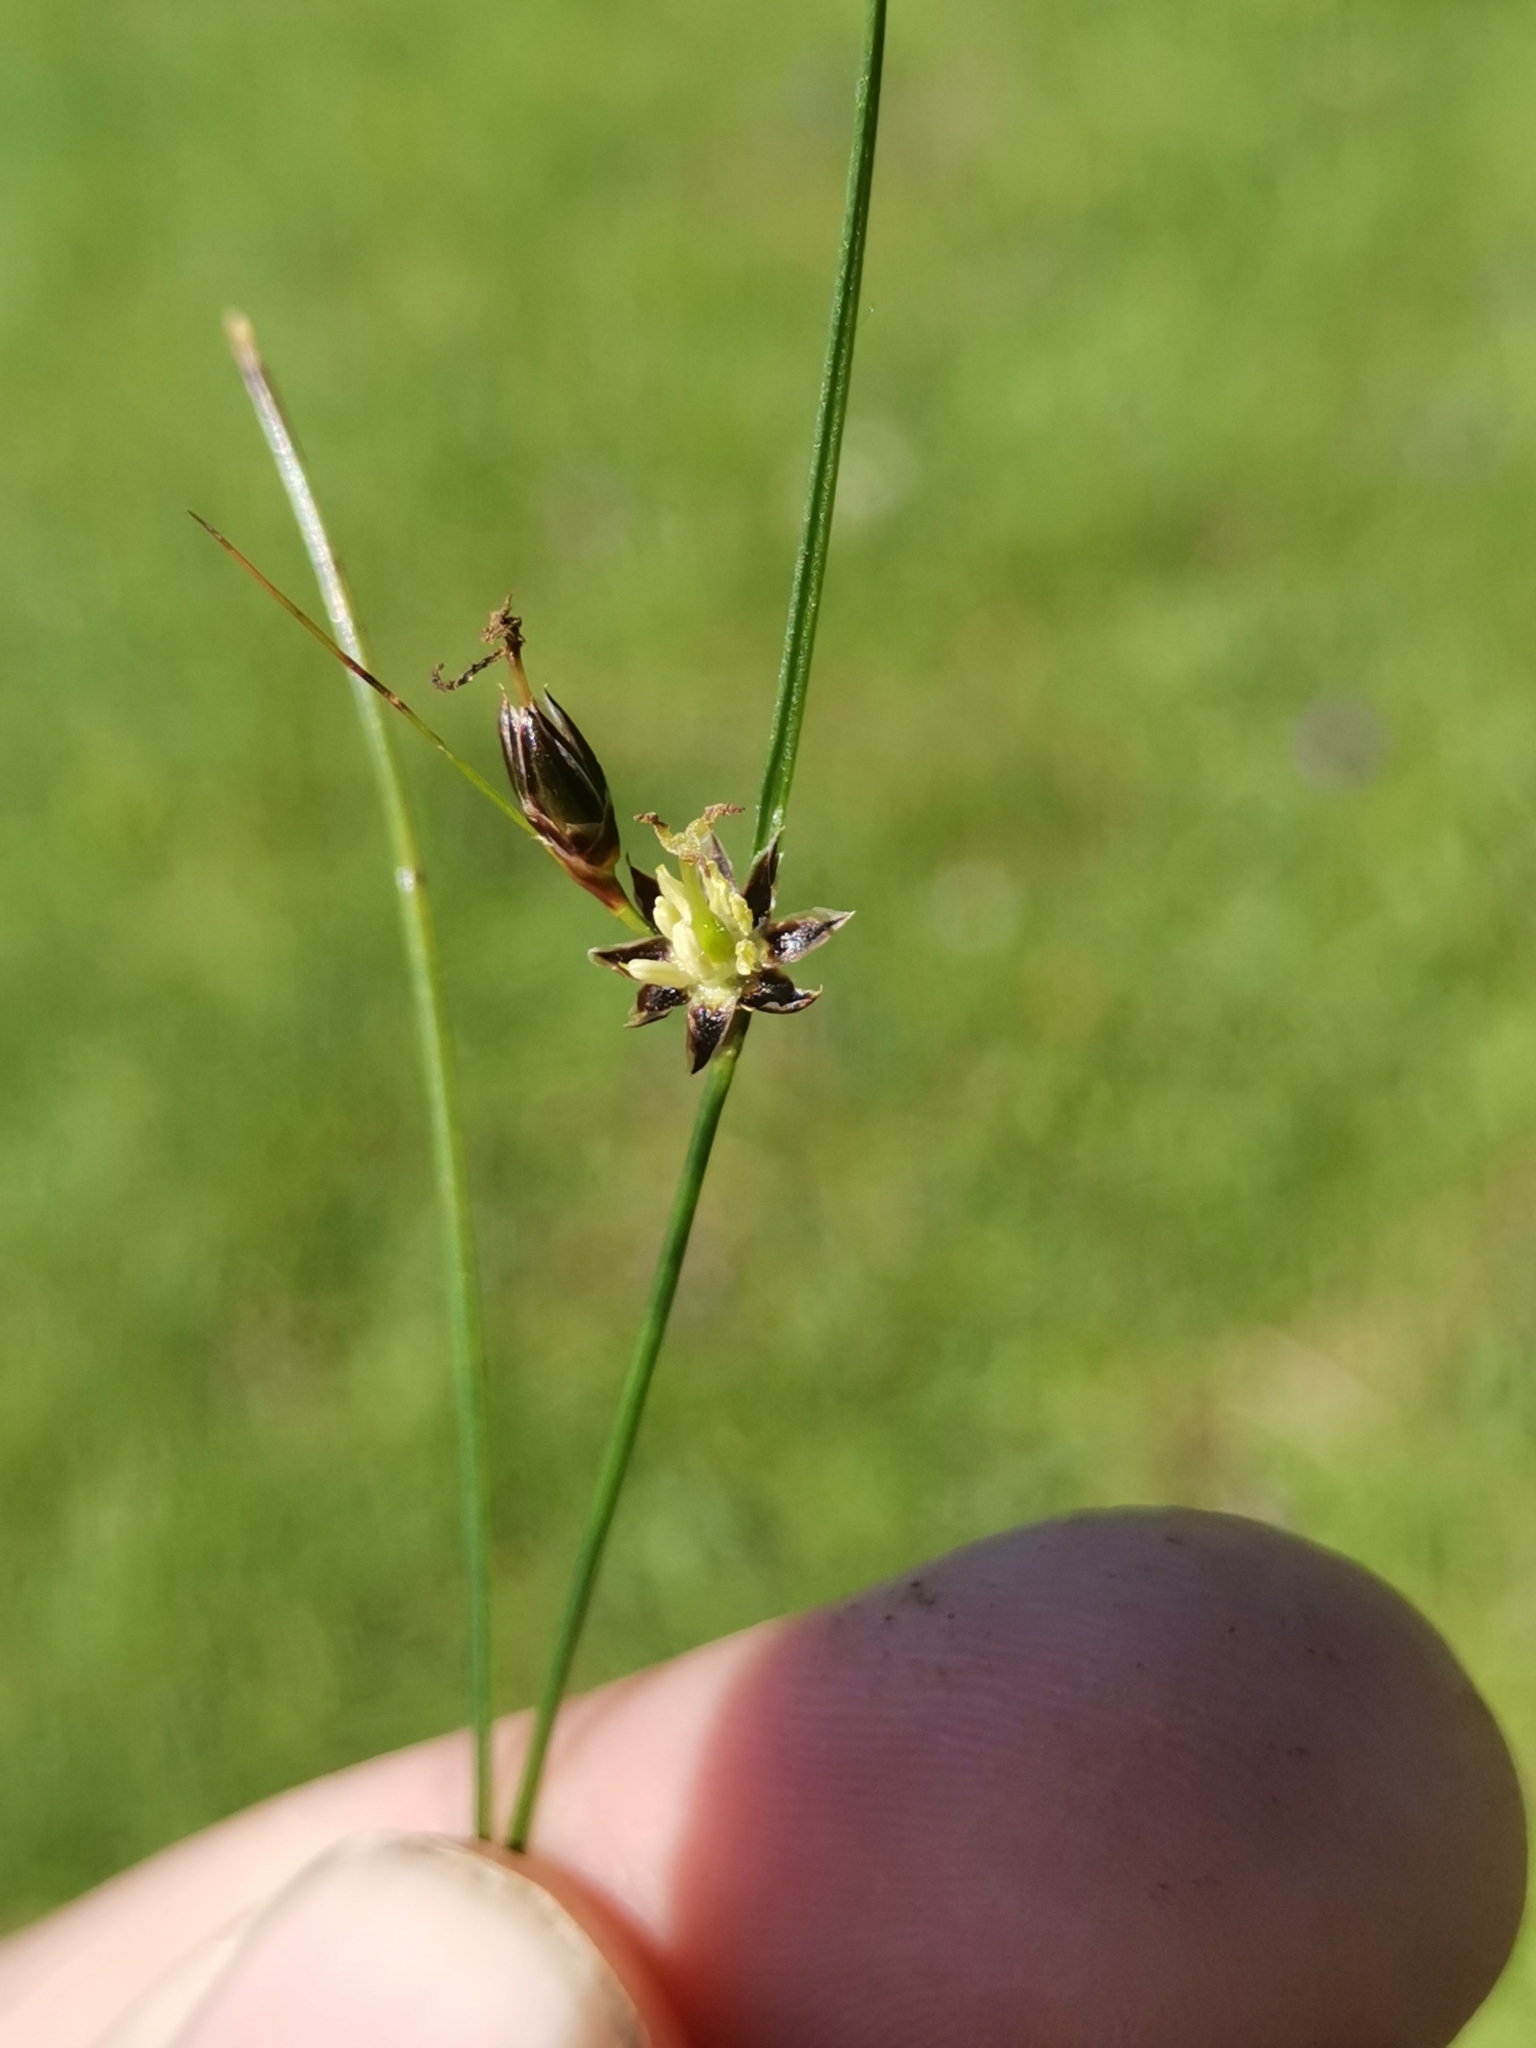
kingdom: Plantae
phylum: Tracheophyta
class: Liliopsida
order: Poales
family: Juncaceae
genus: Oreojuncus
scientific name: Oreojuncus monanthos
